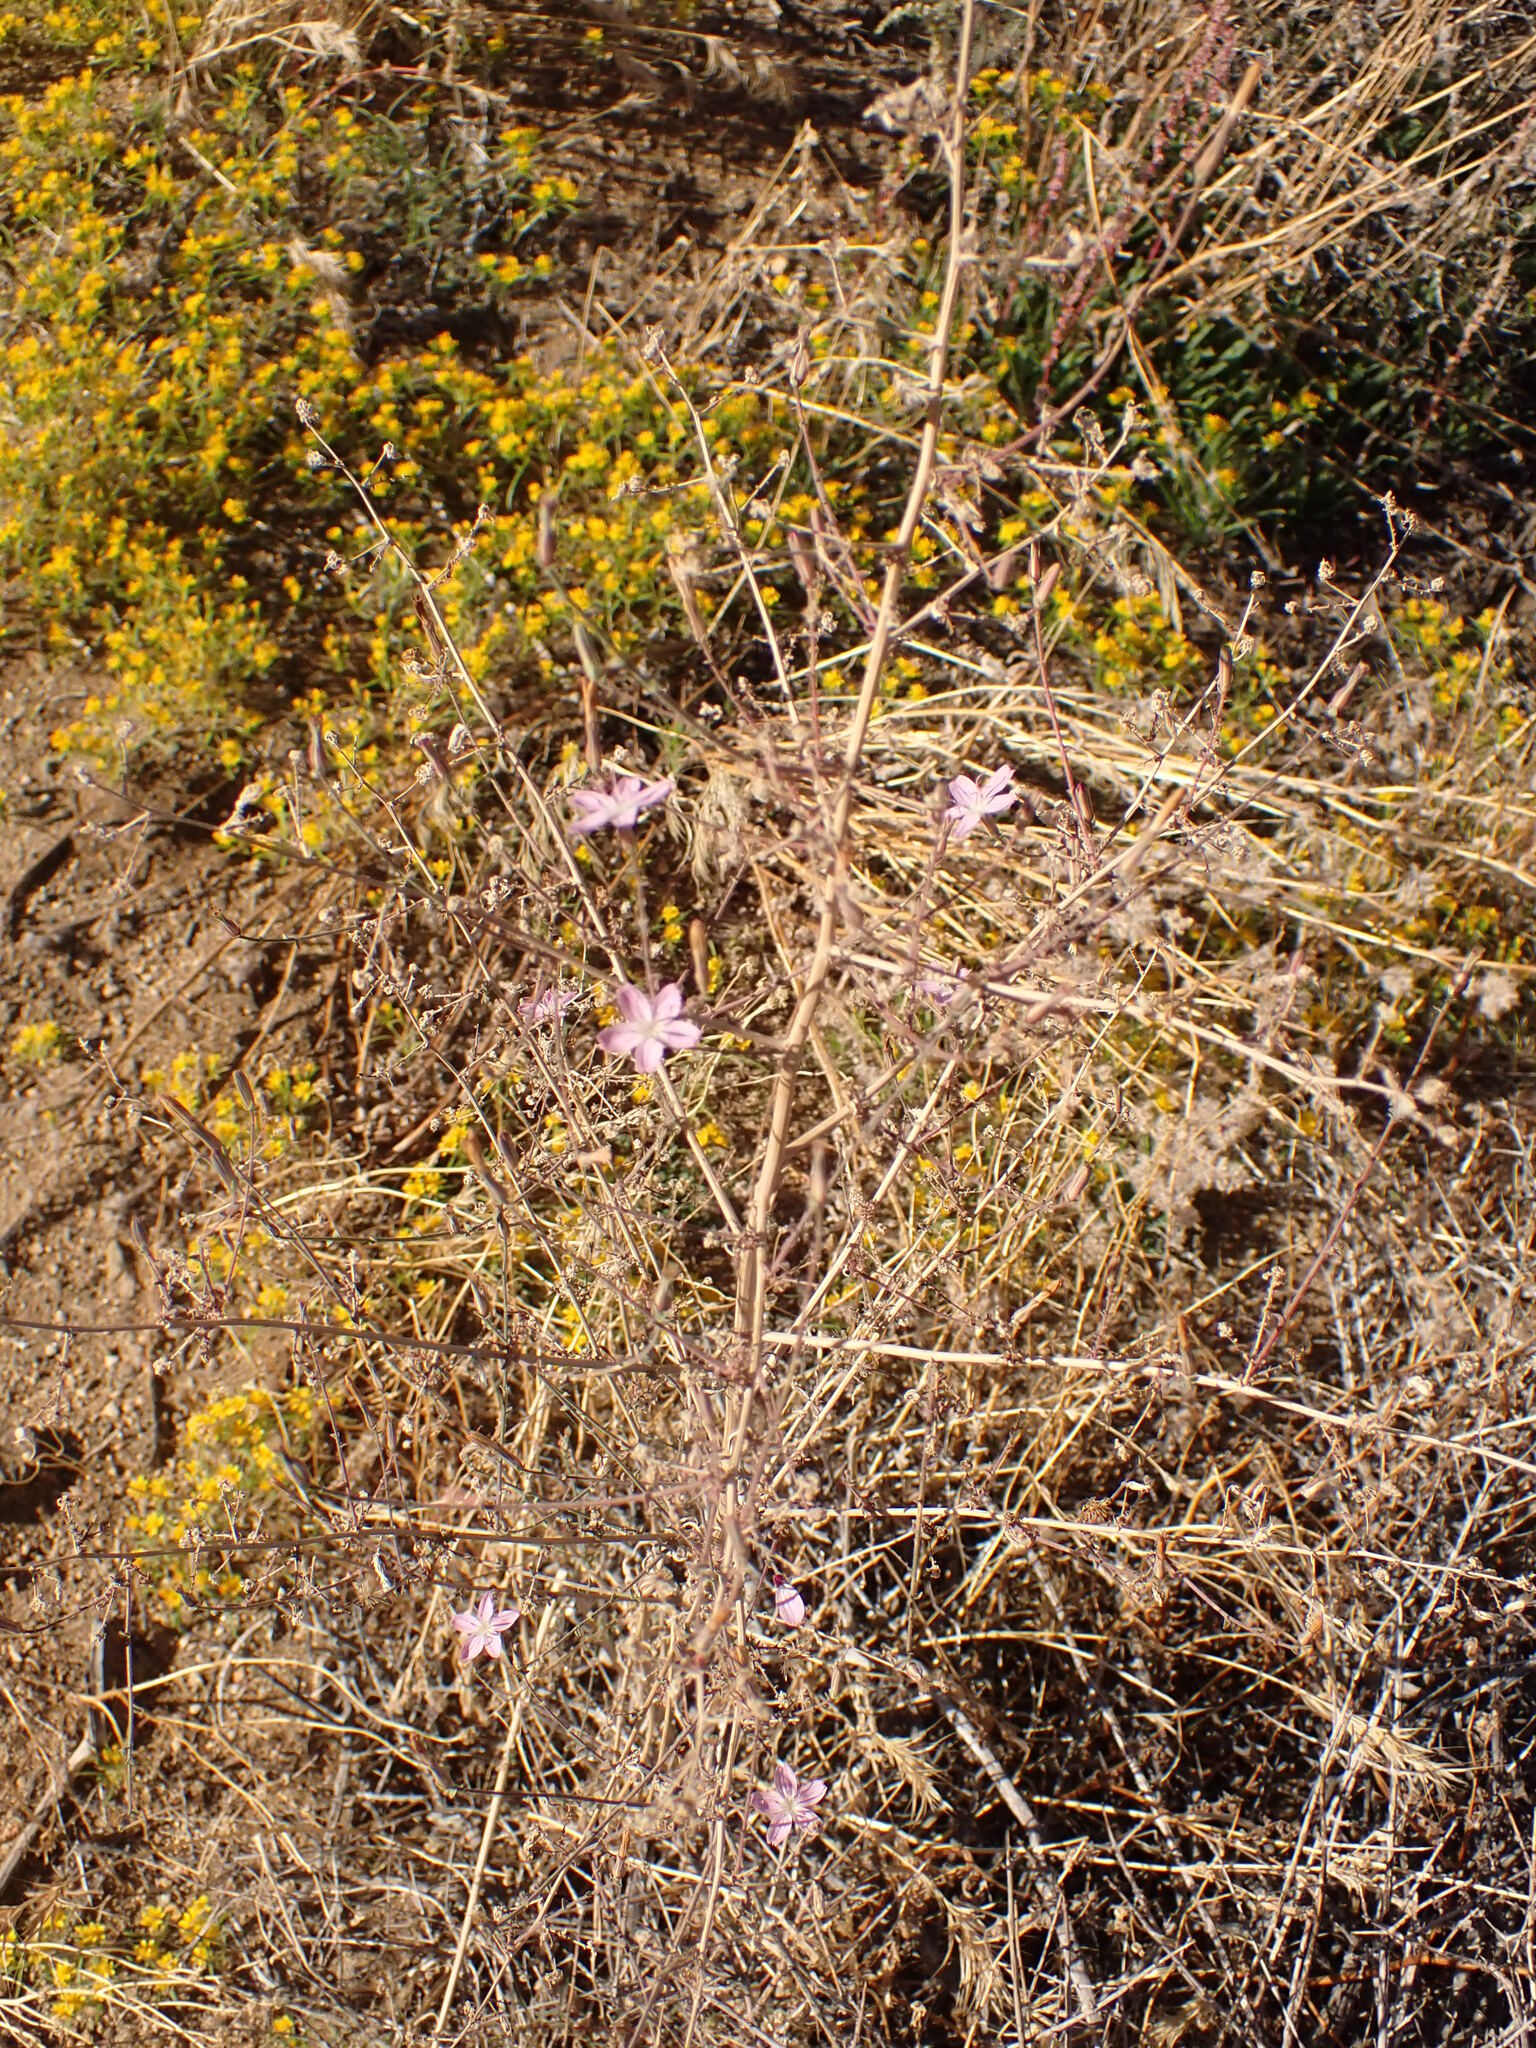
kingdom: Plantae
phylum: Tracheophyta
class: Magnoliopsida
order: Asterales
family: Asteraceae
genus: Stephanomeria
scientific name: Stephanomeria exigua
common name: Small wirelettuce
